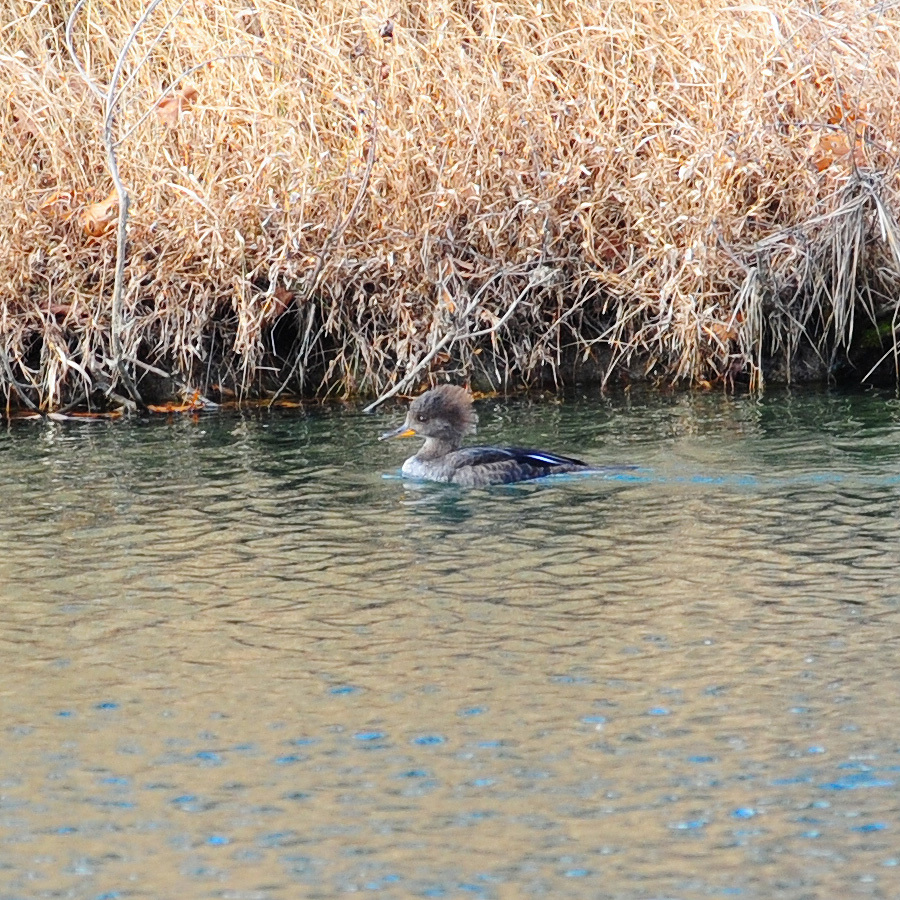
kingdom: Animalia
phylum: Chordata
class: Aves
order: Anseriformes
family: Anatidae
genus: Lophodytes
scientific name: Lophodytes cucullatus
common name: Hooded merganser
